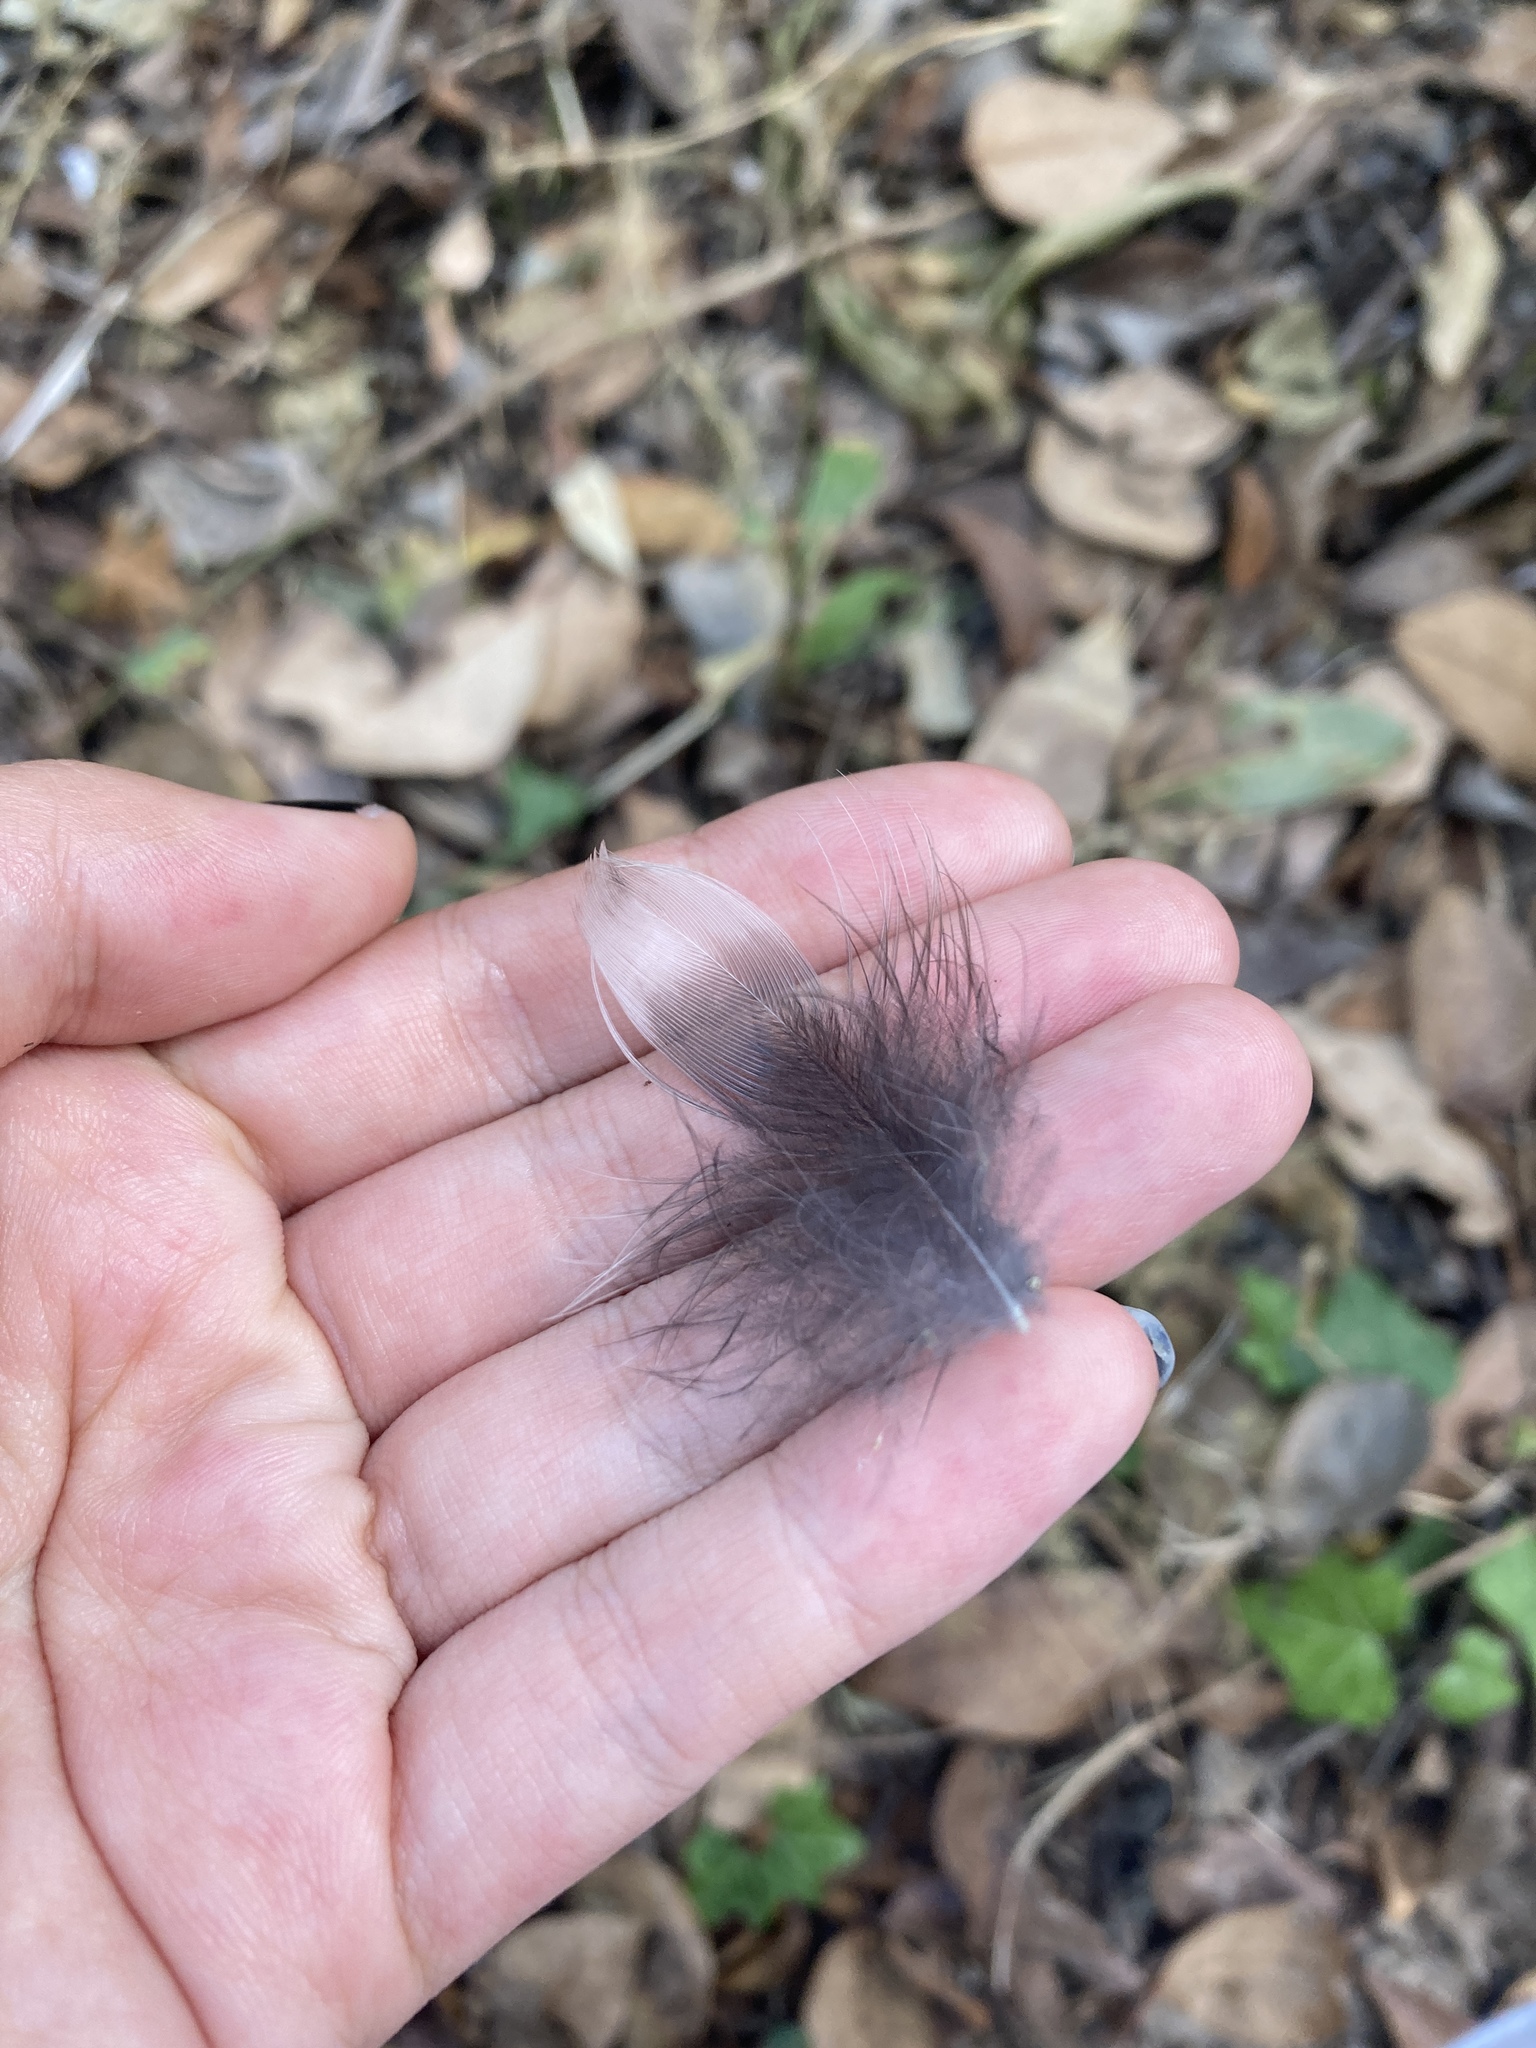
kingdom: Animalia
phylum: Chordata
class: Aves
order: Passeriformes
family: Corvidae
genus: Pica
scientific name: Pica pica
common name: Eurasian magpie
